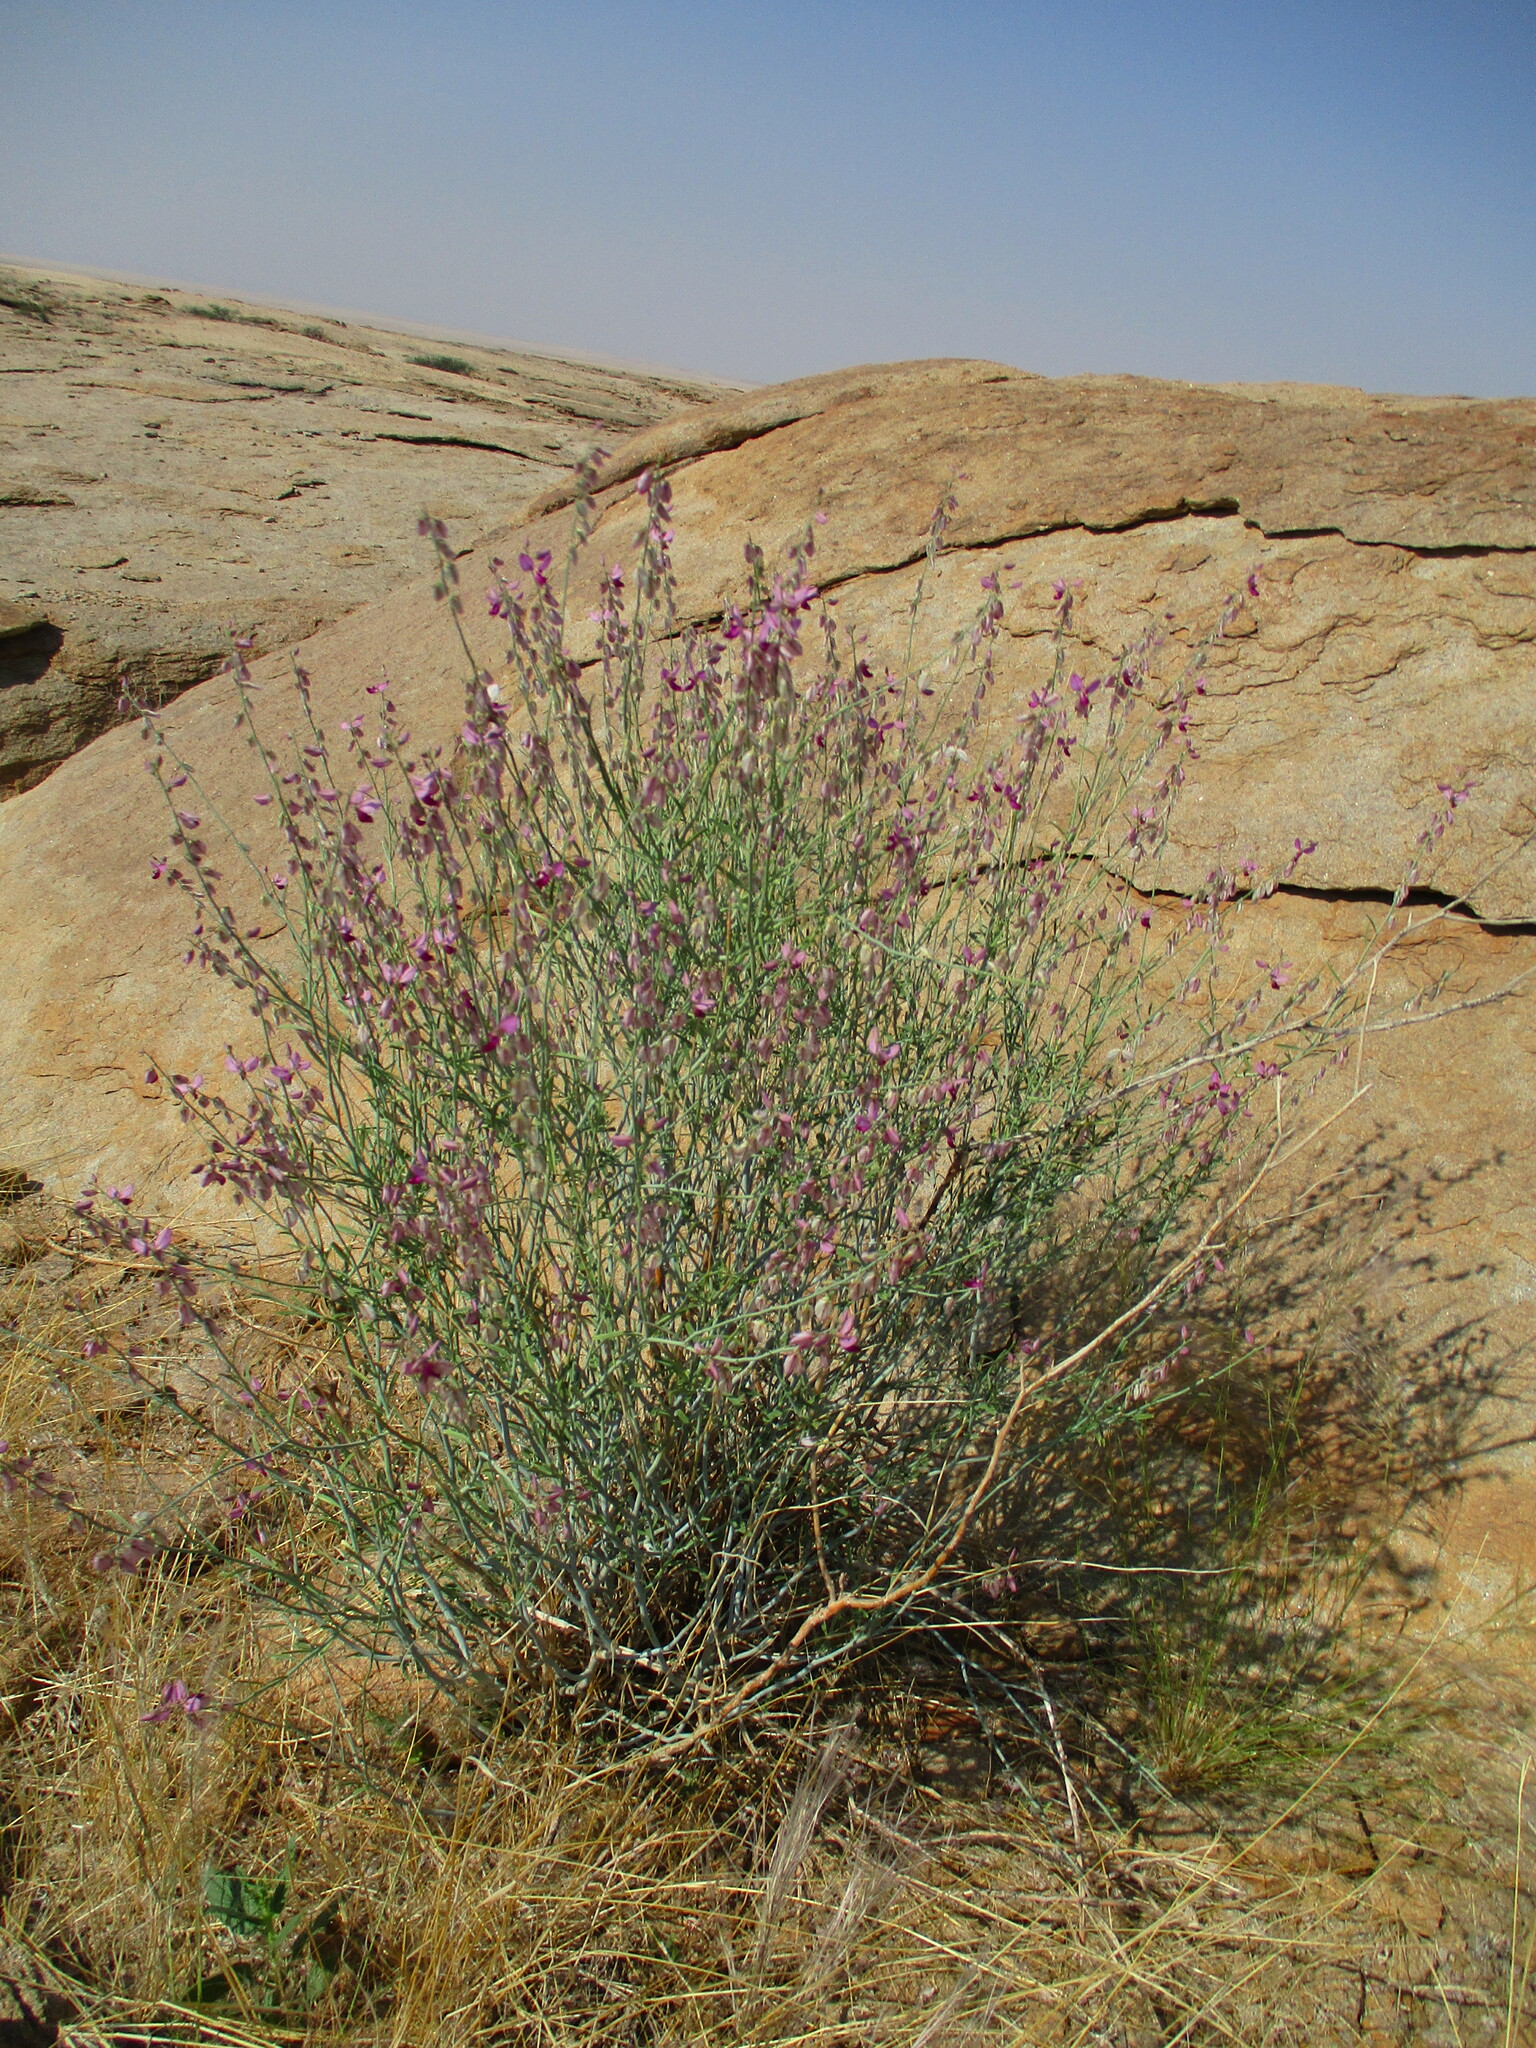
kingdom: Plantae
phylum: Tracheophyta
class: Magnoliopsida
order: Fabales
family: Polygalaceae
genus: Polygala
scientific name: Polygala guerichiana
